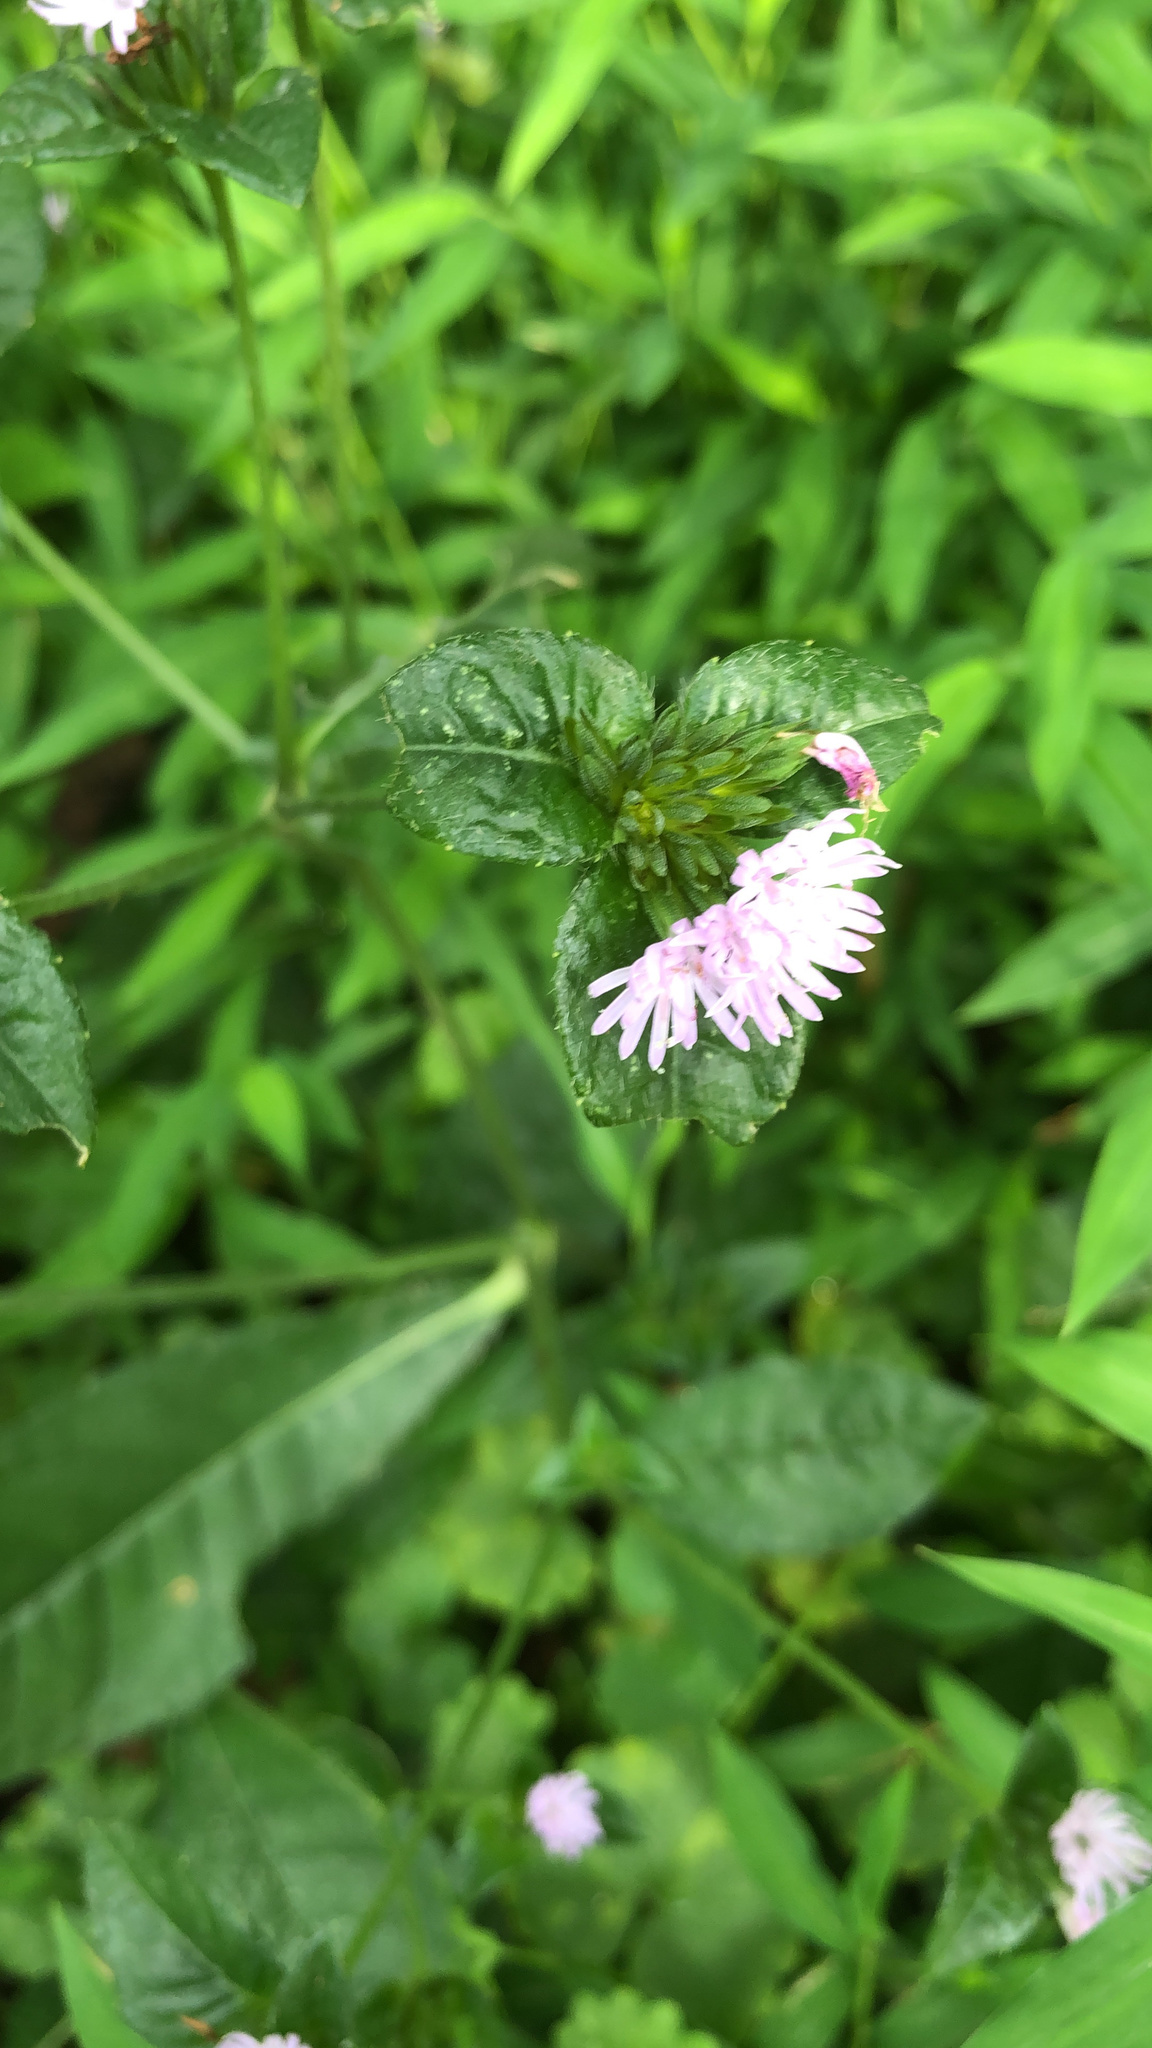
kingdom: Plantae
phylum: Tracheophyta
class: Magnoliopsida
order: Asterales
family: Asteraceae
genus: Elephantopus
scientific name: Elephantopus carolinianus
